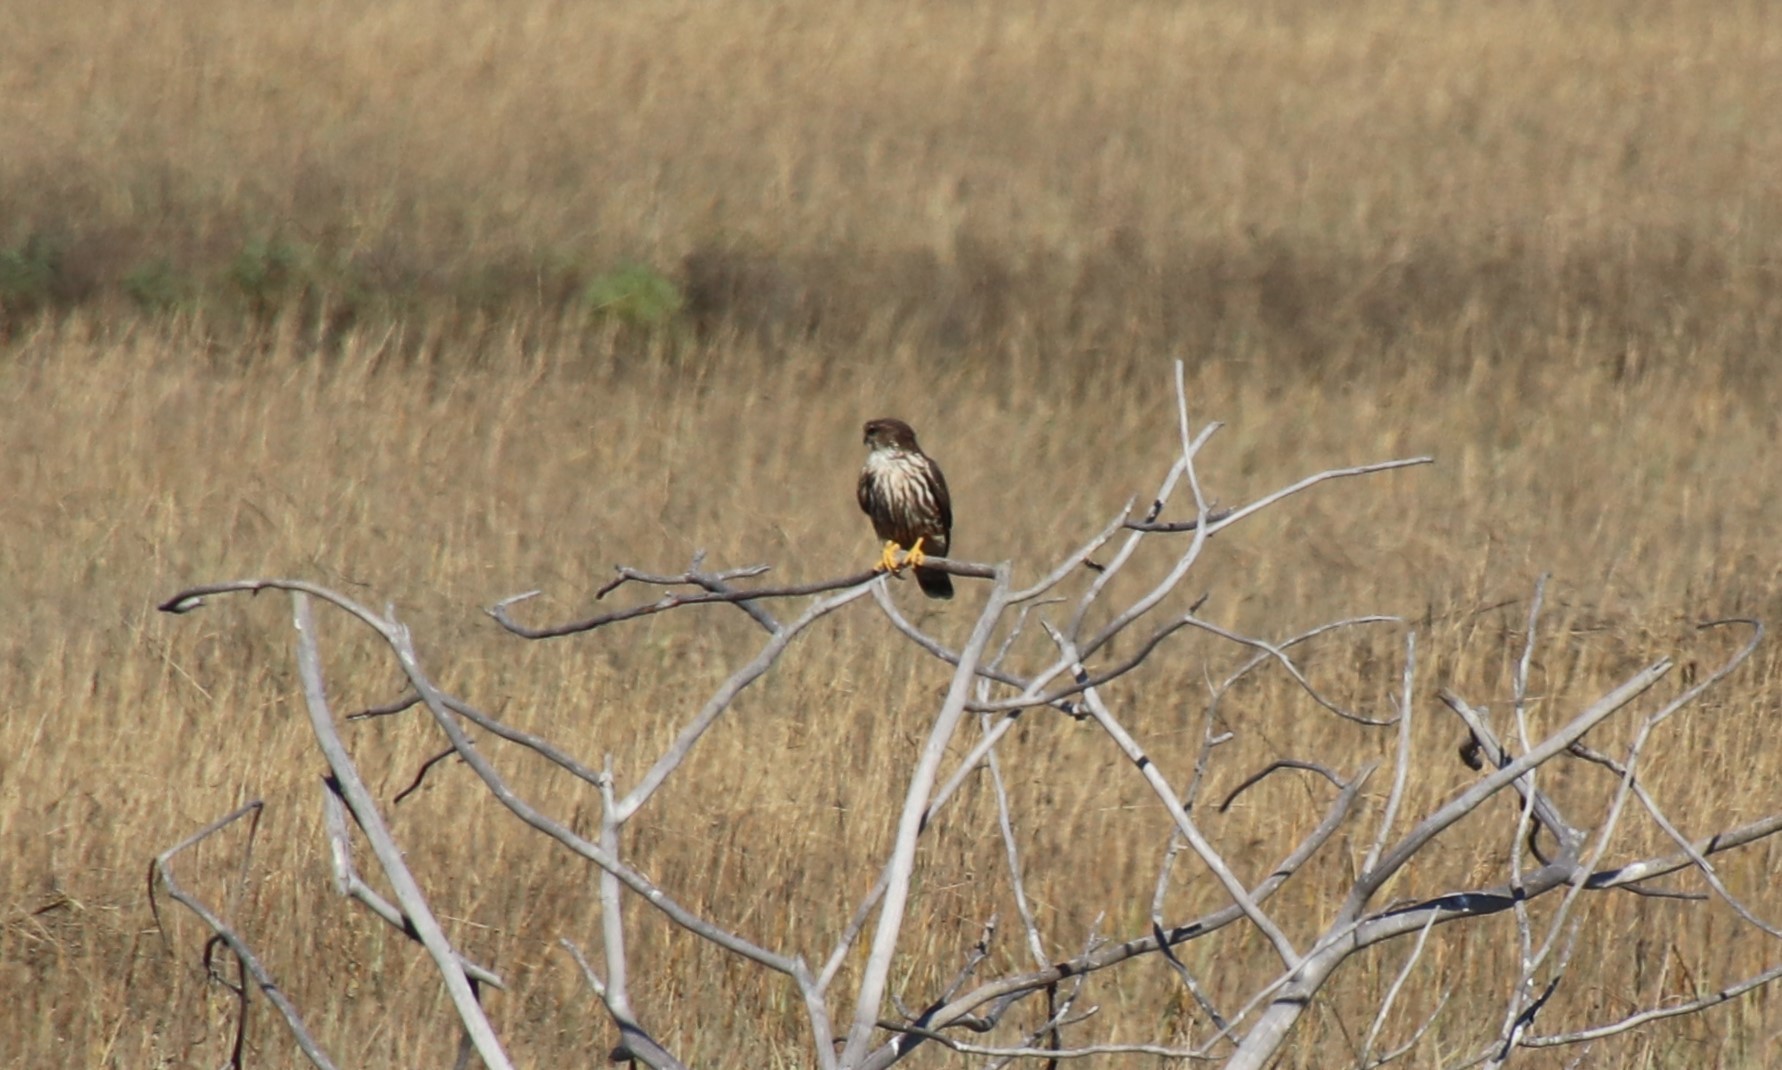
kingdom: Animalia
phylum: Chordata
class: Aves
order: Falconiformes
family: Falconidae
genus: Falco
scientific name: Falco columbarius
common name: Merlin
